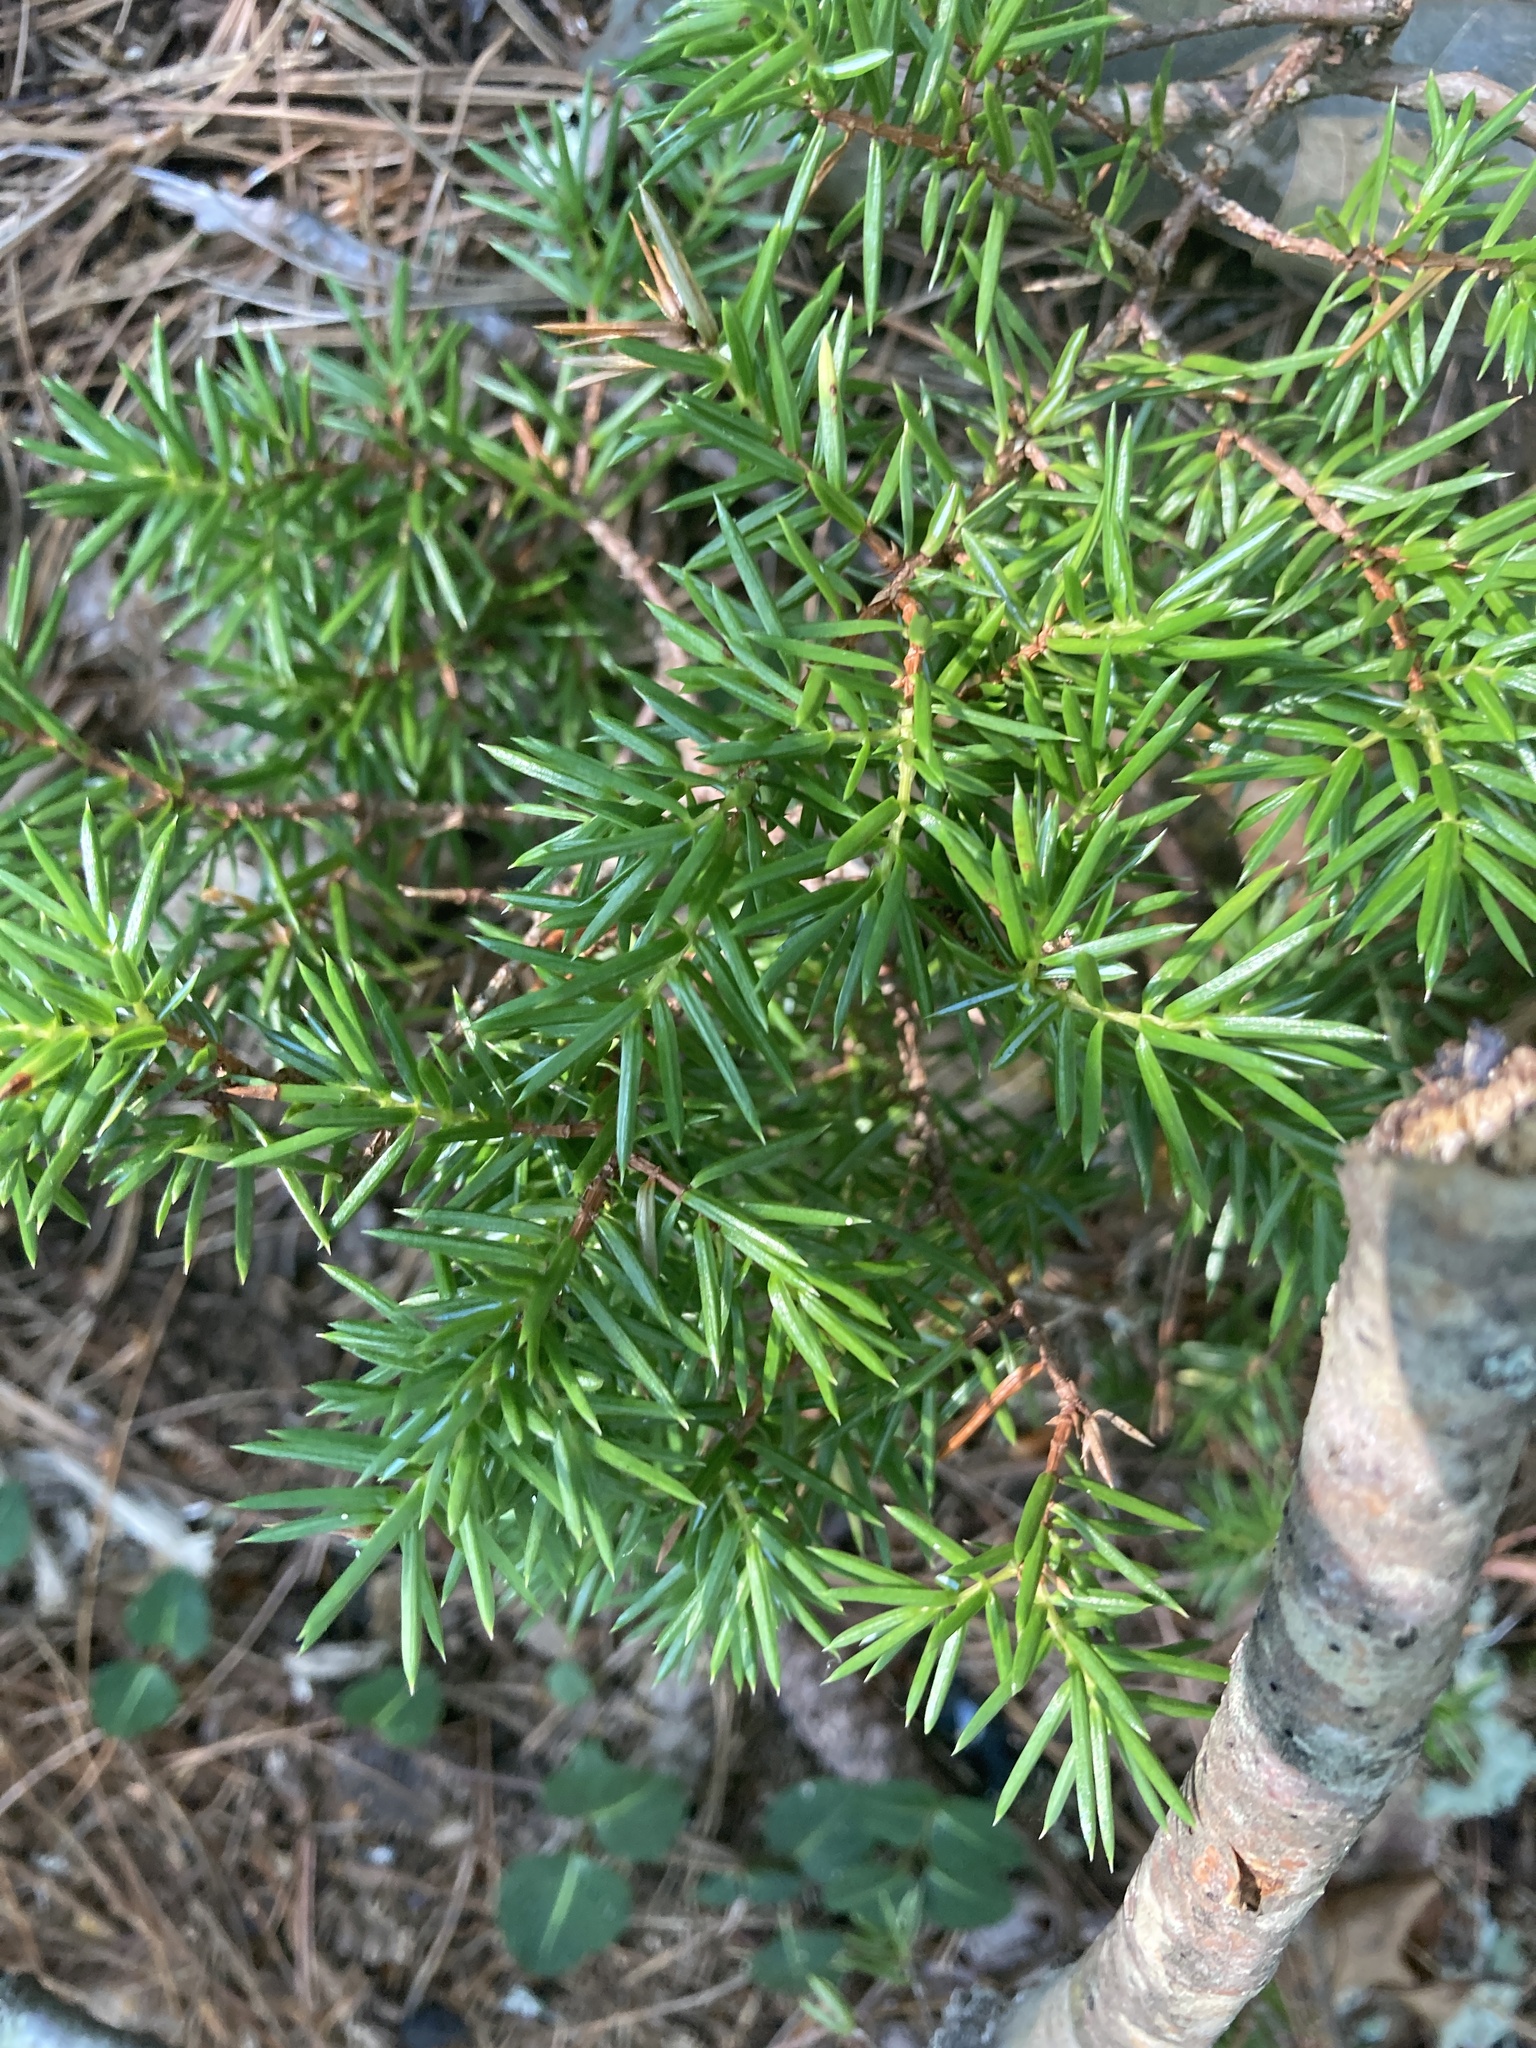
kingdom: Plantae
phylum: Tracheophyta
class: Pinopsida
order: Pinales
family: Cupressaceae
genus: Juniperus
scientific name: Juniperus communis
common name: Common juniper
